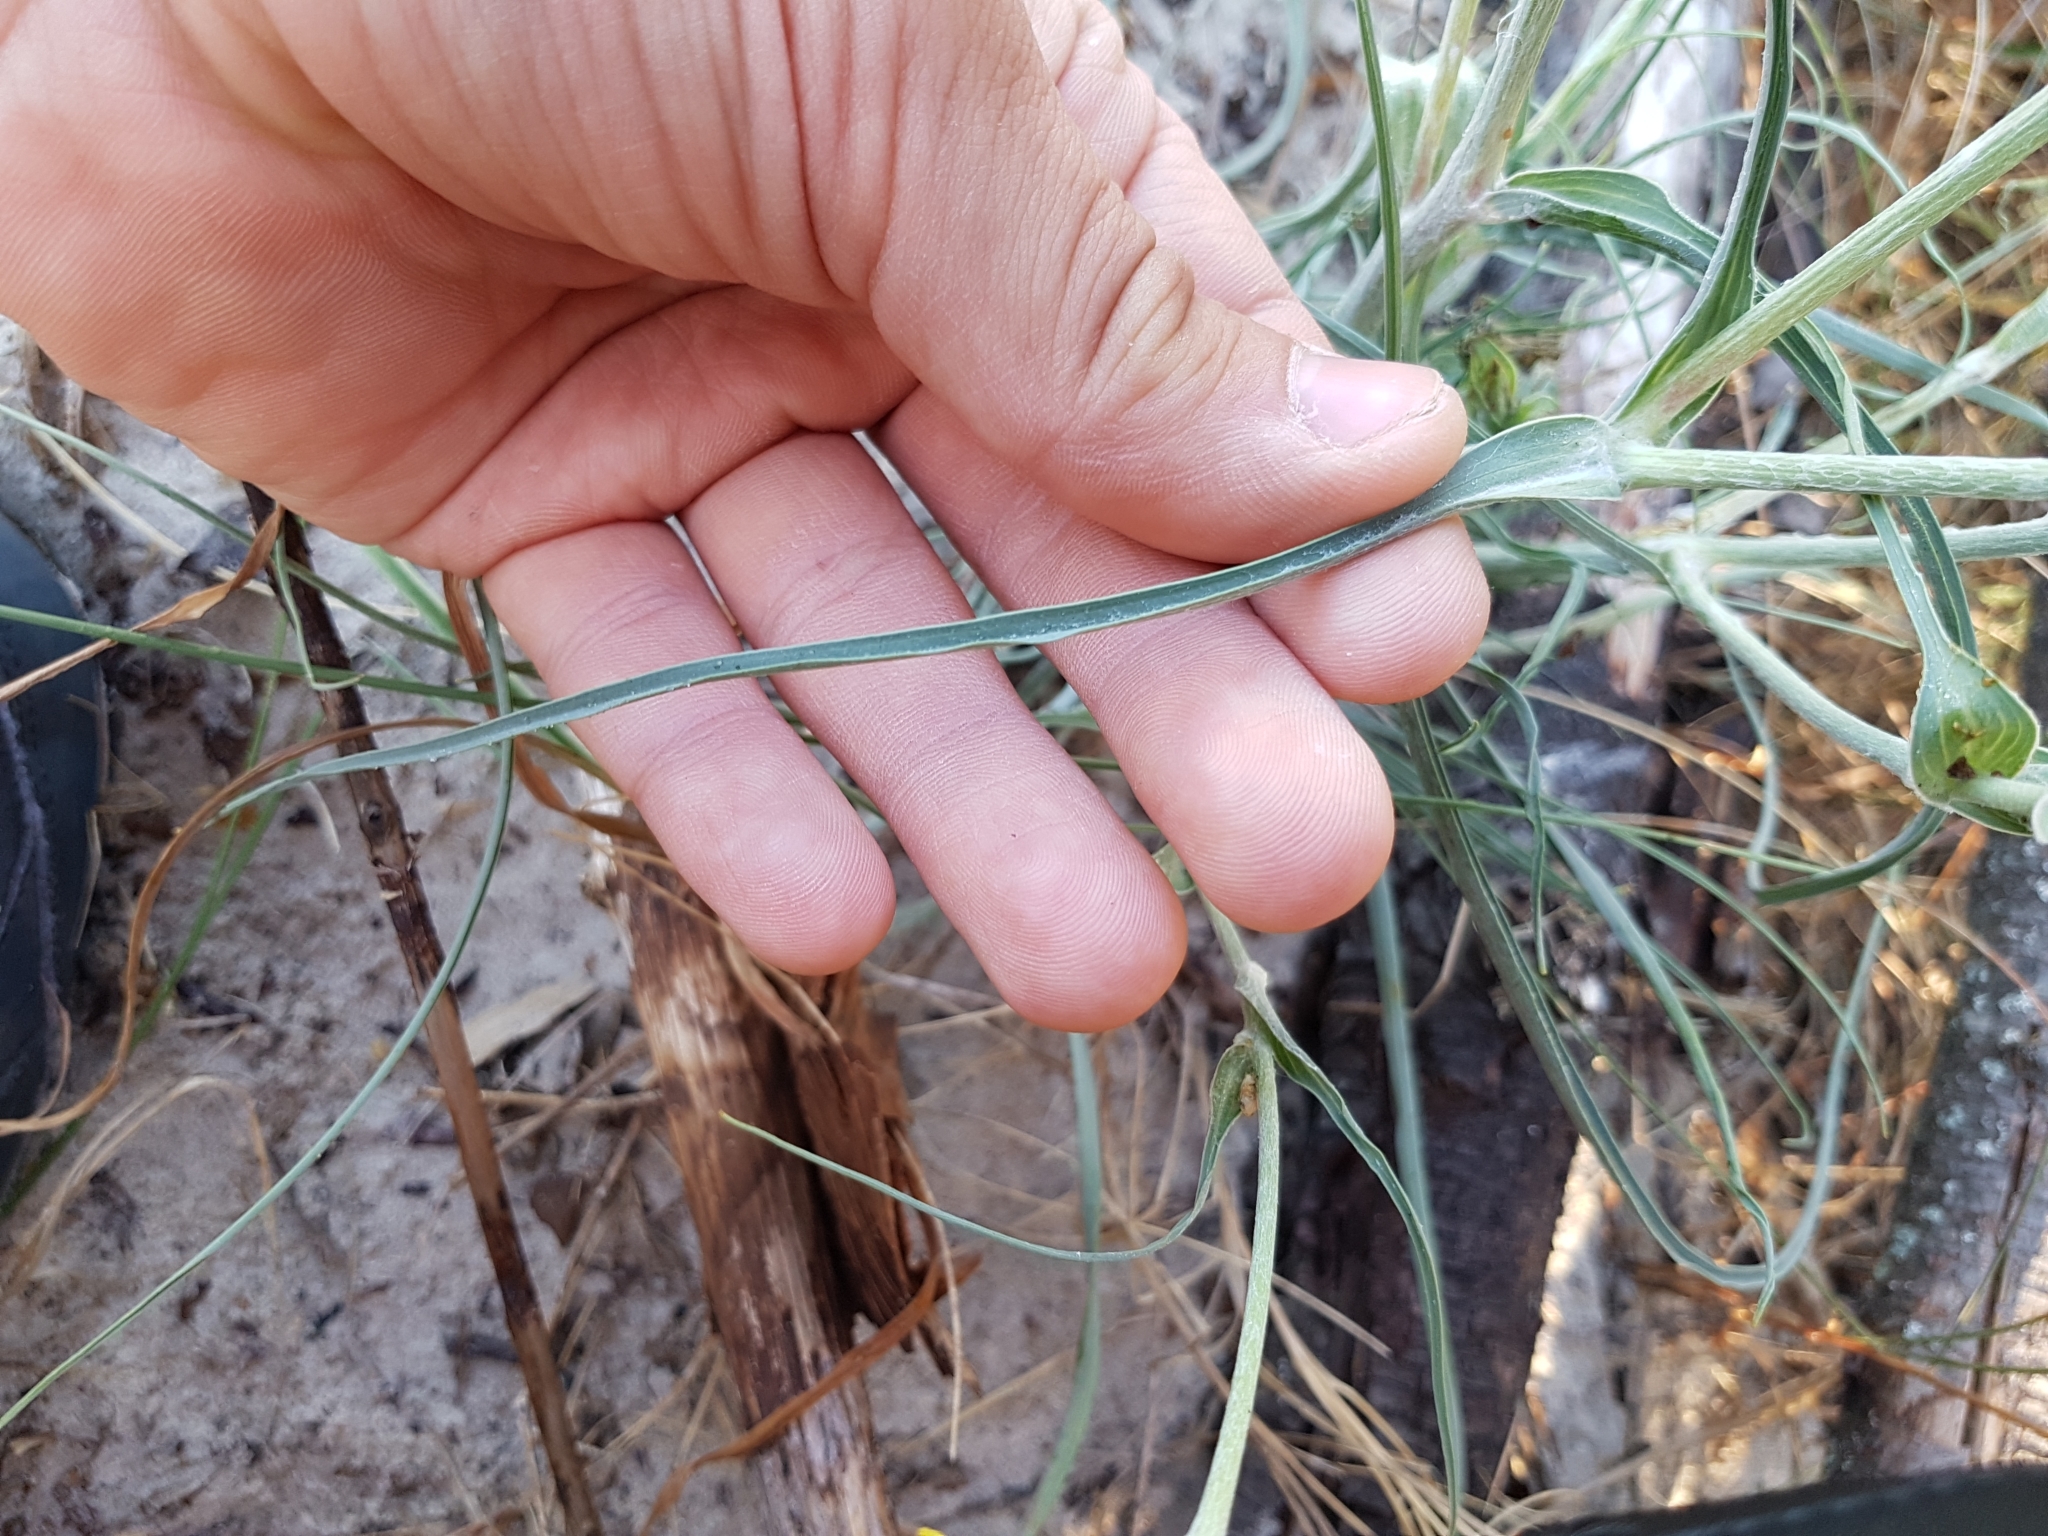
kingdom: Plantae
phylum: Tracheophyta
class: Magnoliopsida
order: Asterales
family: Asteraceae
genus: Tragopogon
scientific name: Tragopogon heterospermus
